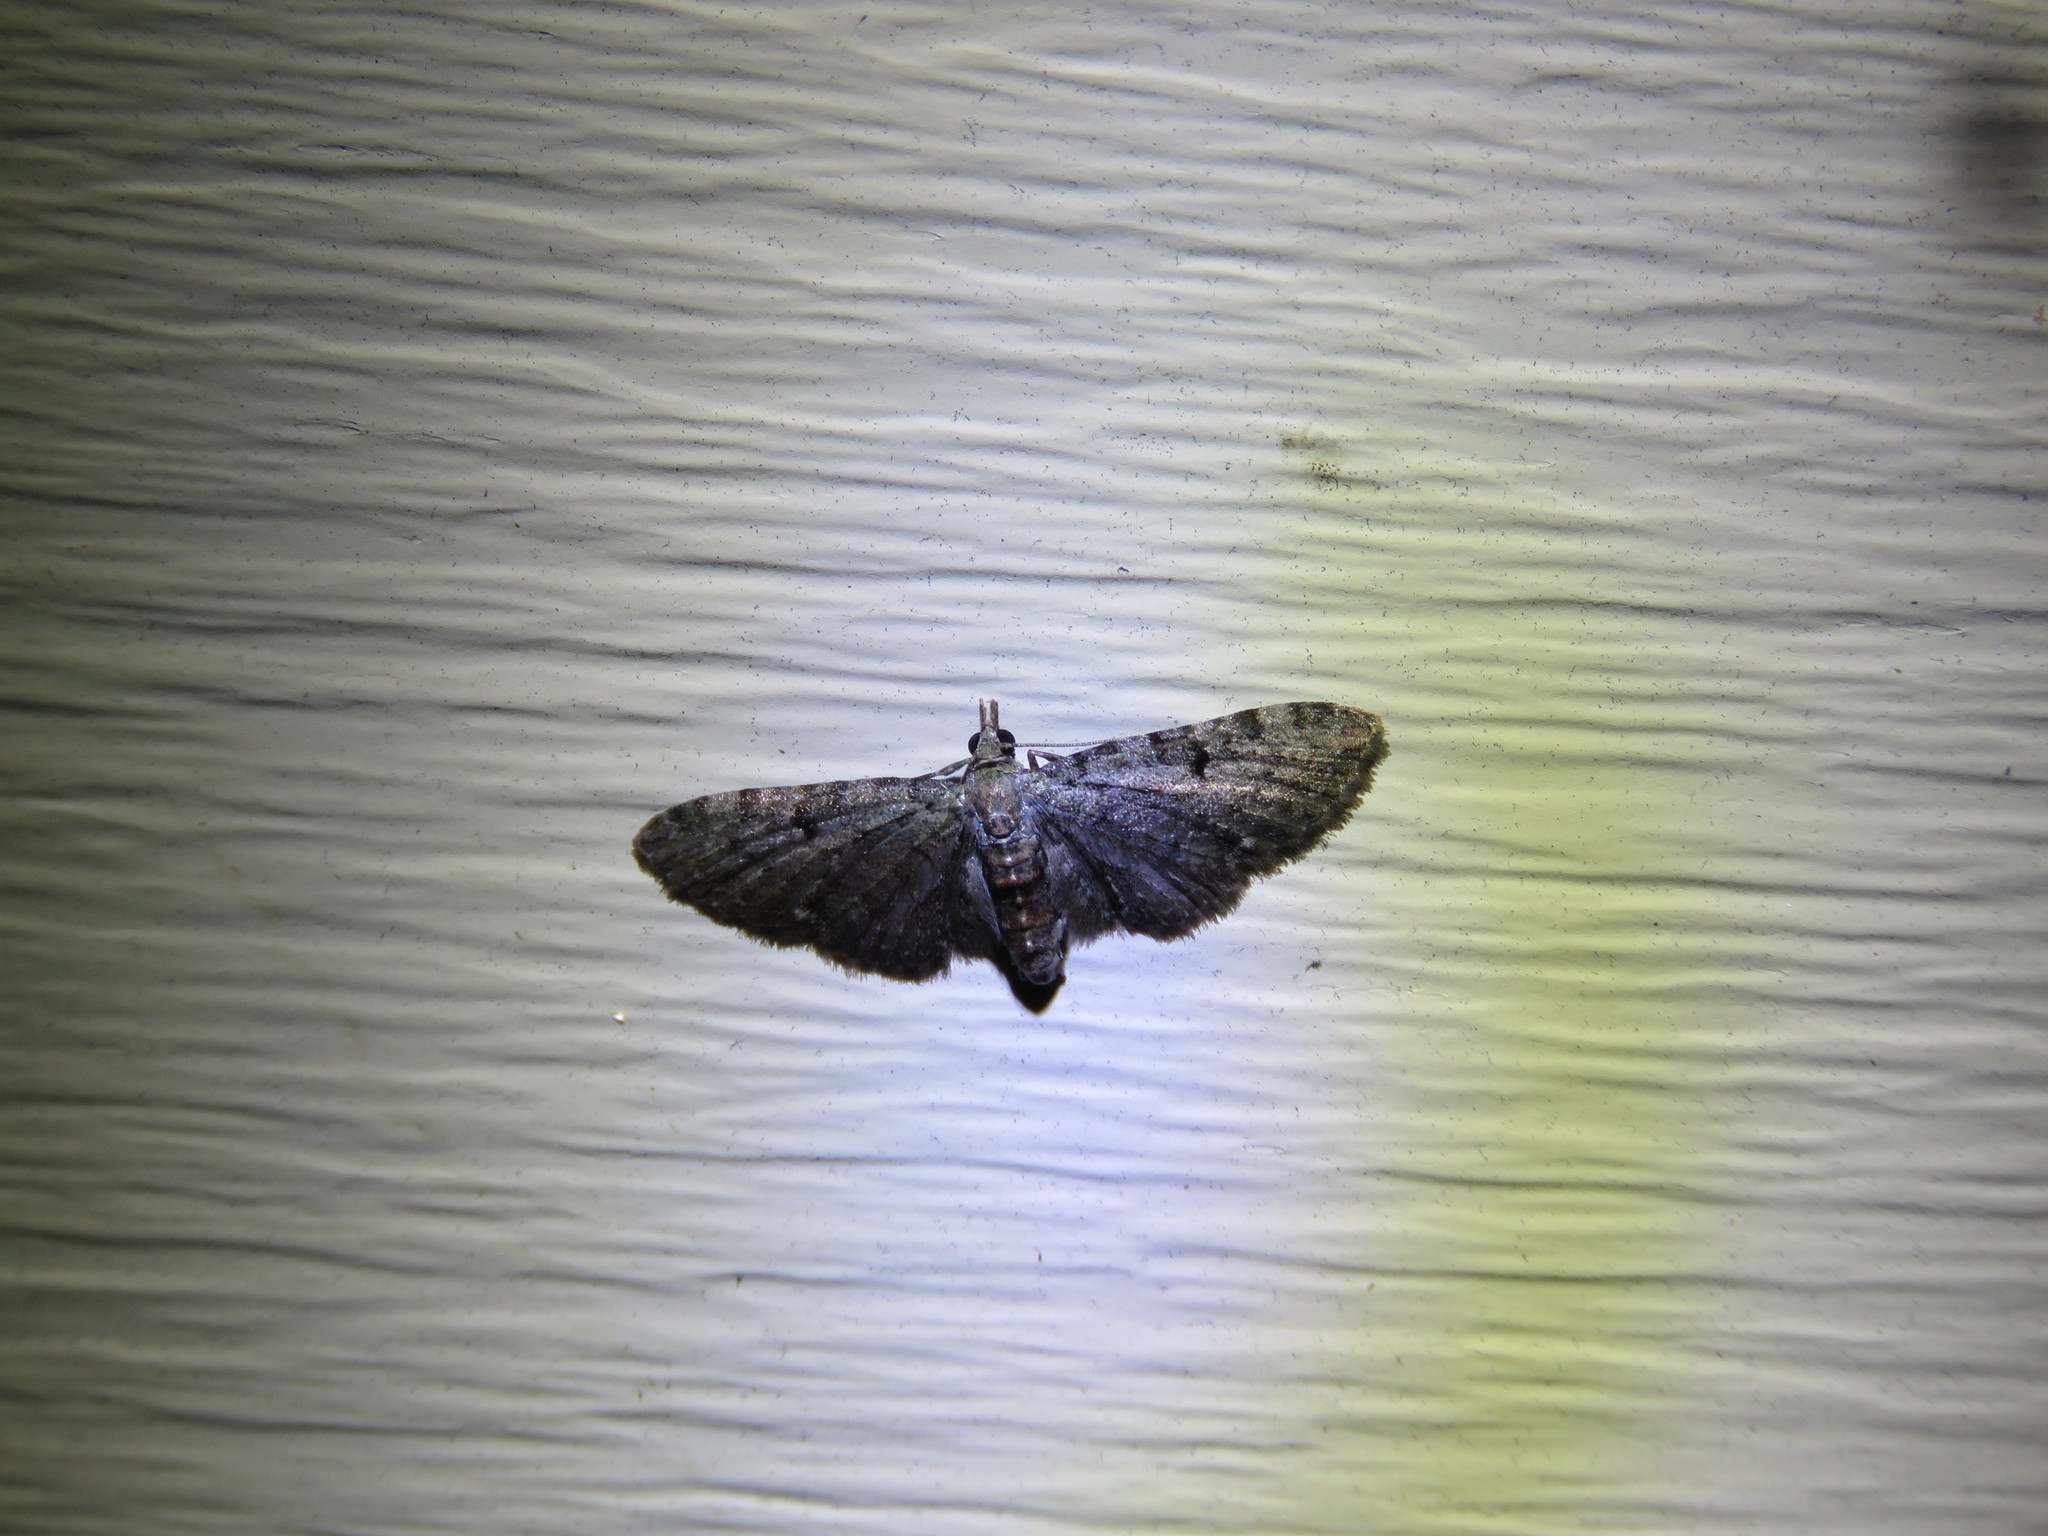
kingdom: Animalia
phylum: Arthropoda
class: Insecta
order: Lepidoptera
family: Geometridae
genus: Eupithecia
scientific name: Eupithecia miserulata
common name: Common eupithecia
